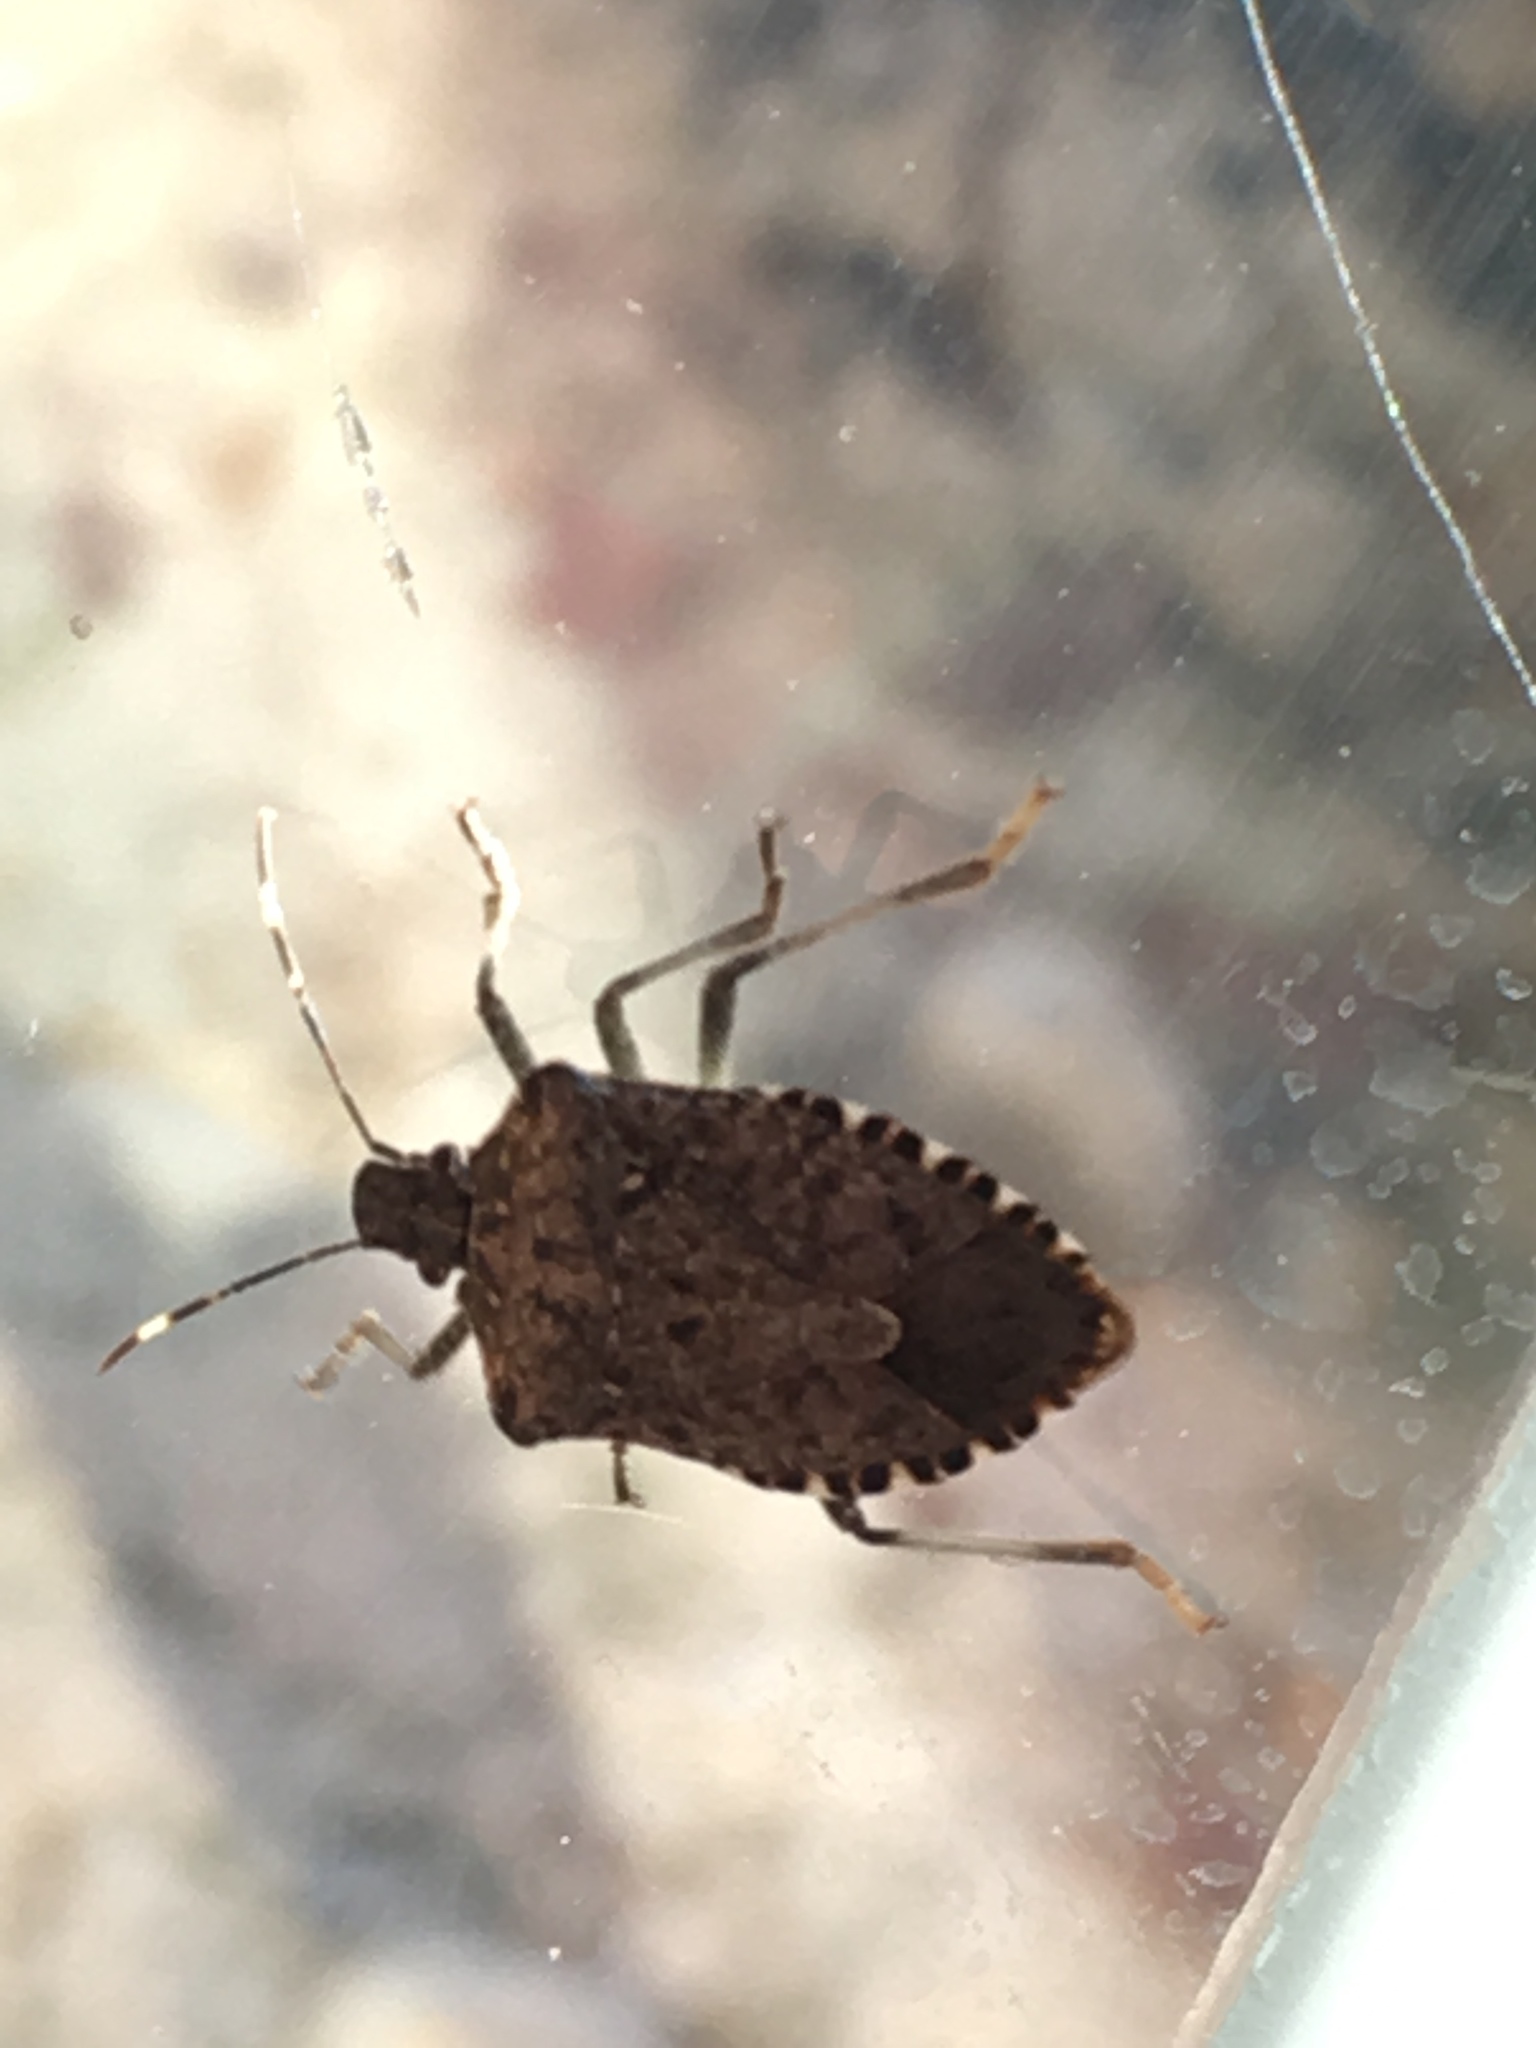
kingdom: Animalia
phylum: Arthropoda
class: Insecta
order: Hemiptera
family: Pentatomidae
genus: Halyomorpha
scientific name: Halyomorpha halys
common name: Brown marmorated stink bug
